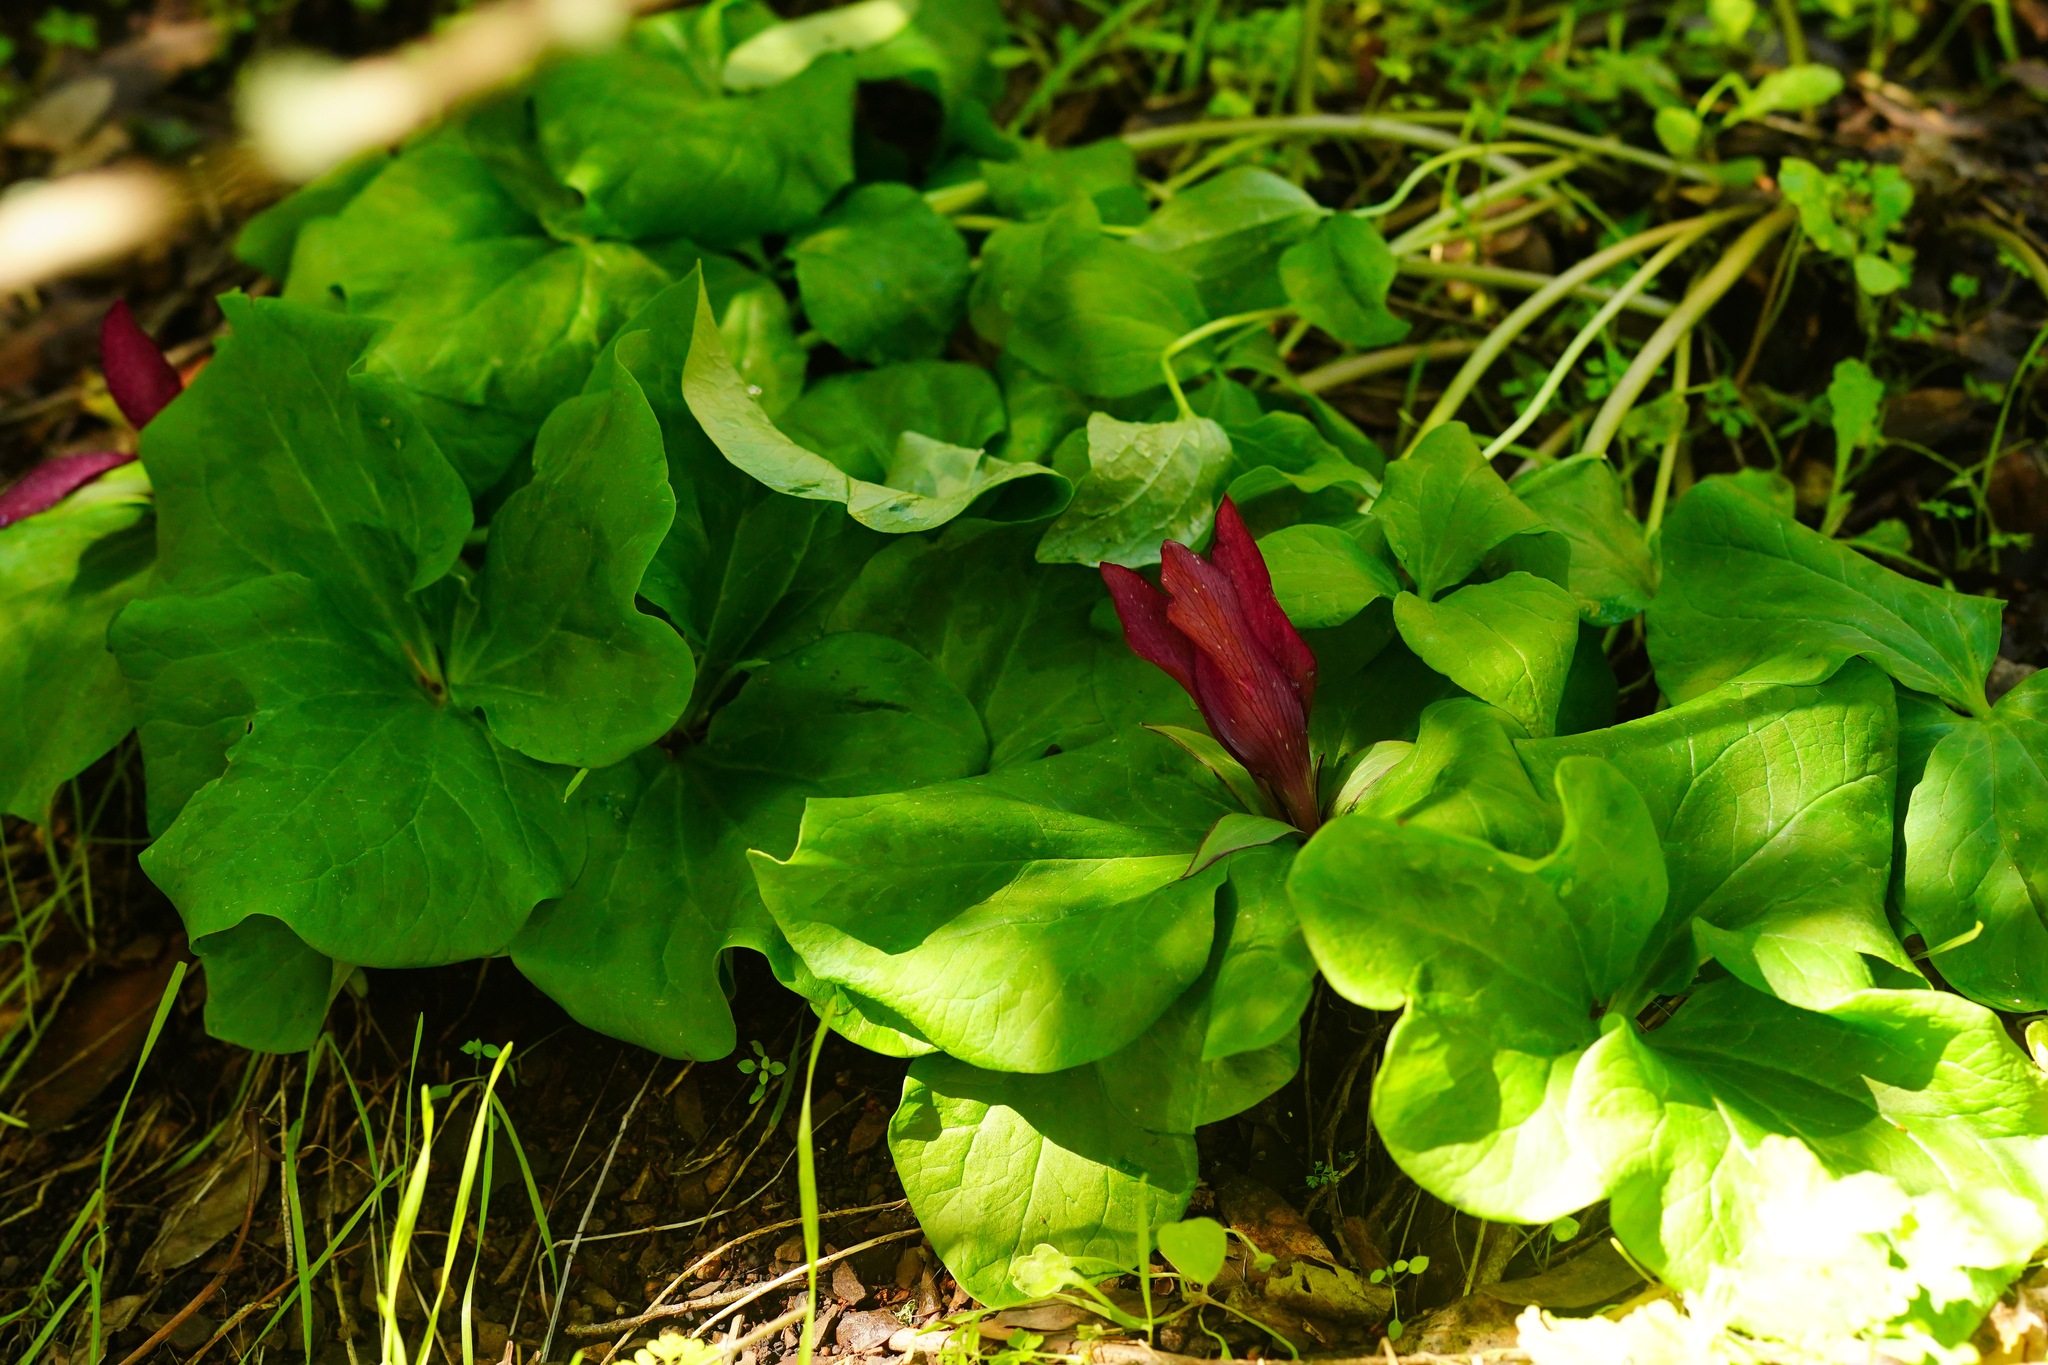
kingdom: Plantae
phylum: Tracheophyta
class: Liliopsida
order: Liliales
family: Melanthiaceae
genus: Trillium
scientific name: Trillium chloropetalum
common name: Giant trillium
